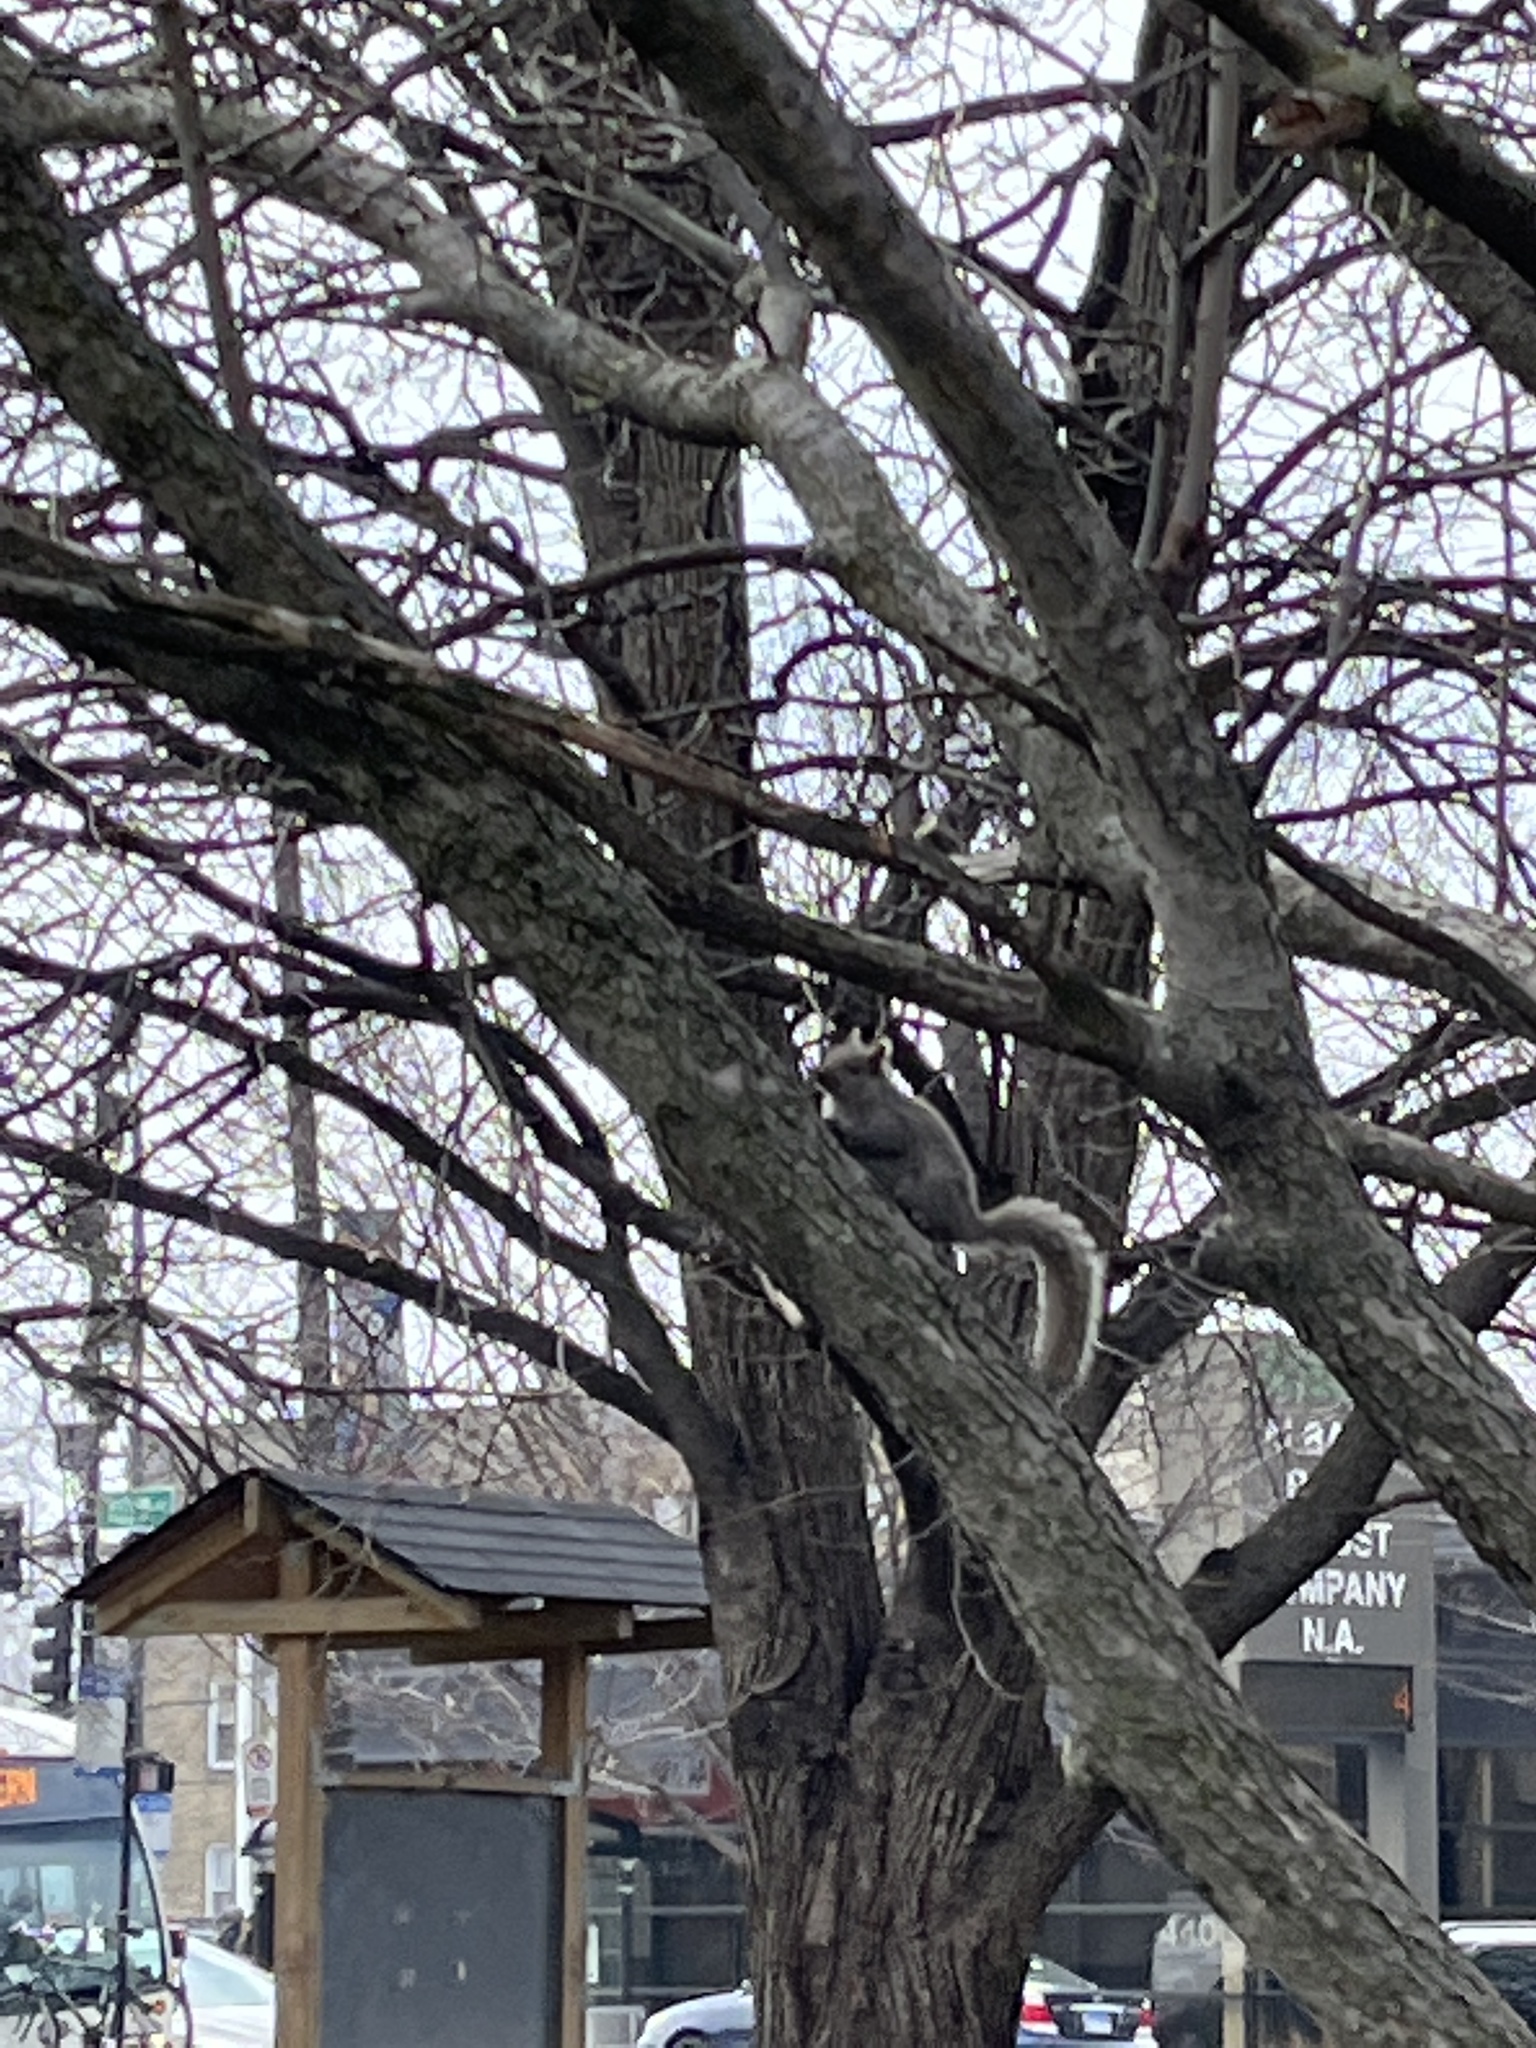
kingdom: Animalia
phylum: Chordata
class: Mammalia
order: Rodentia
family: Sciuridae
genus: Sciurus
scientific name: Sciurus carolinensis
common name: Eastern gray squirrel
